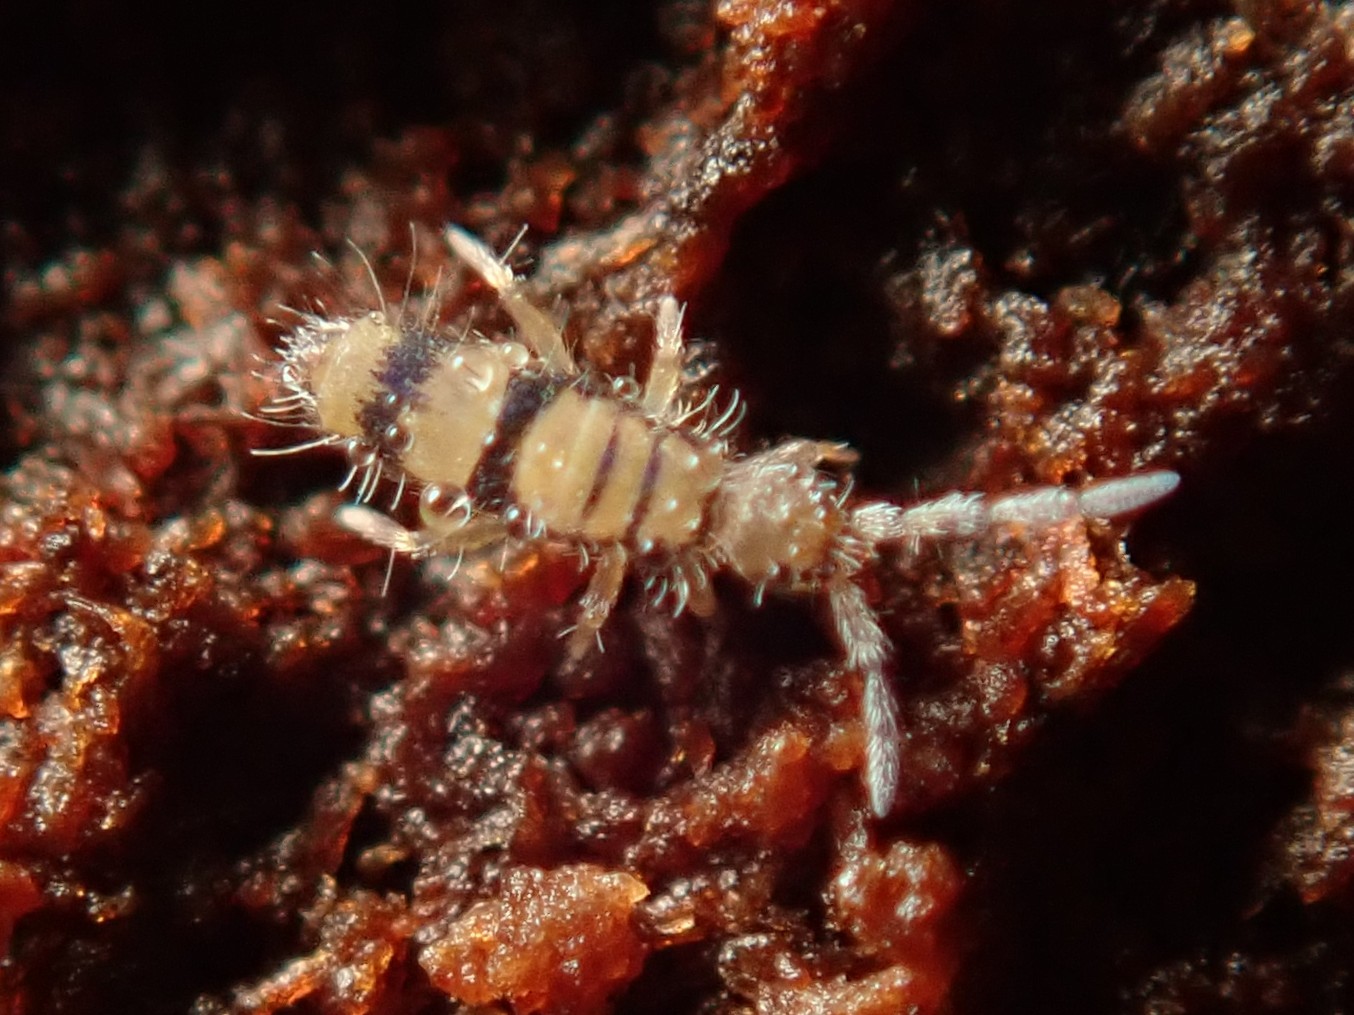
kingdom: Animalia
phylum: Arthropoda
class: Collembola
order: Entomobryomorpha
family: Entomobryidae
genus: Entomobrya
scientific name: Entomobrya corticalis
